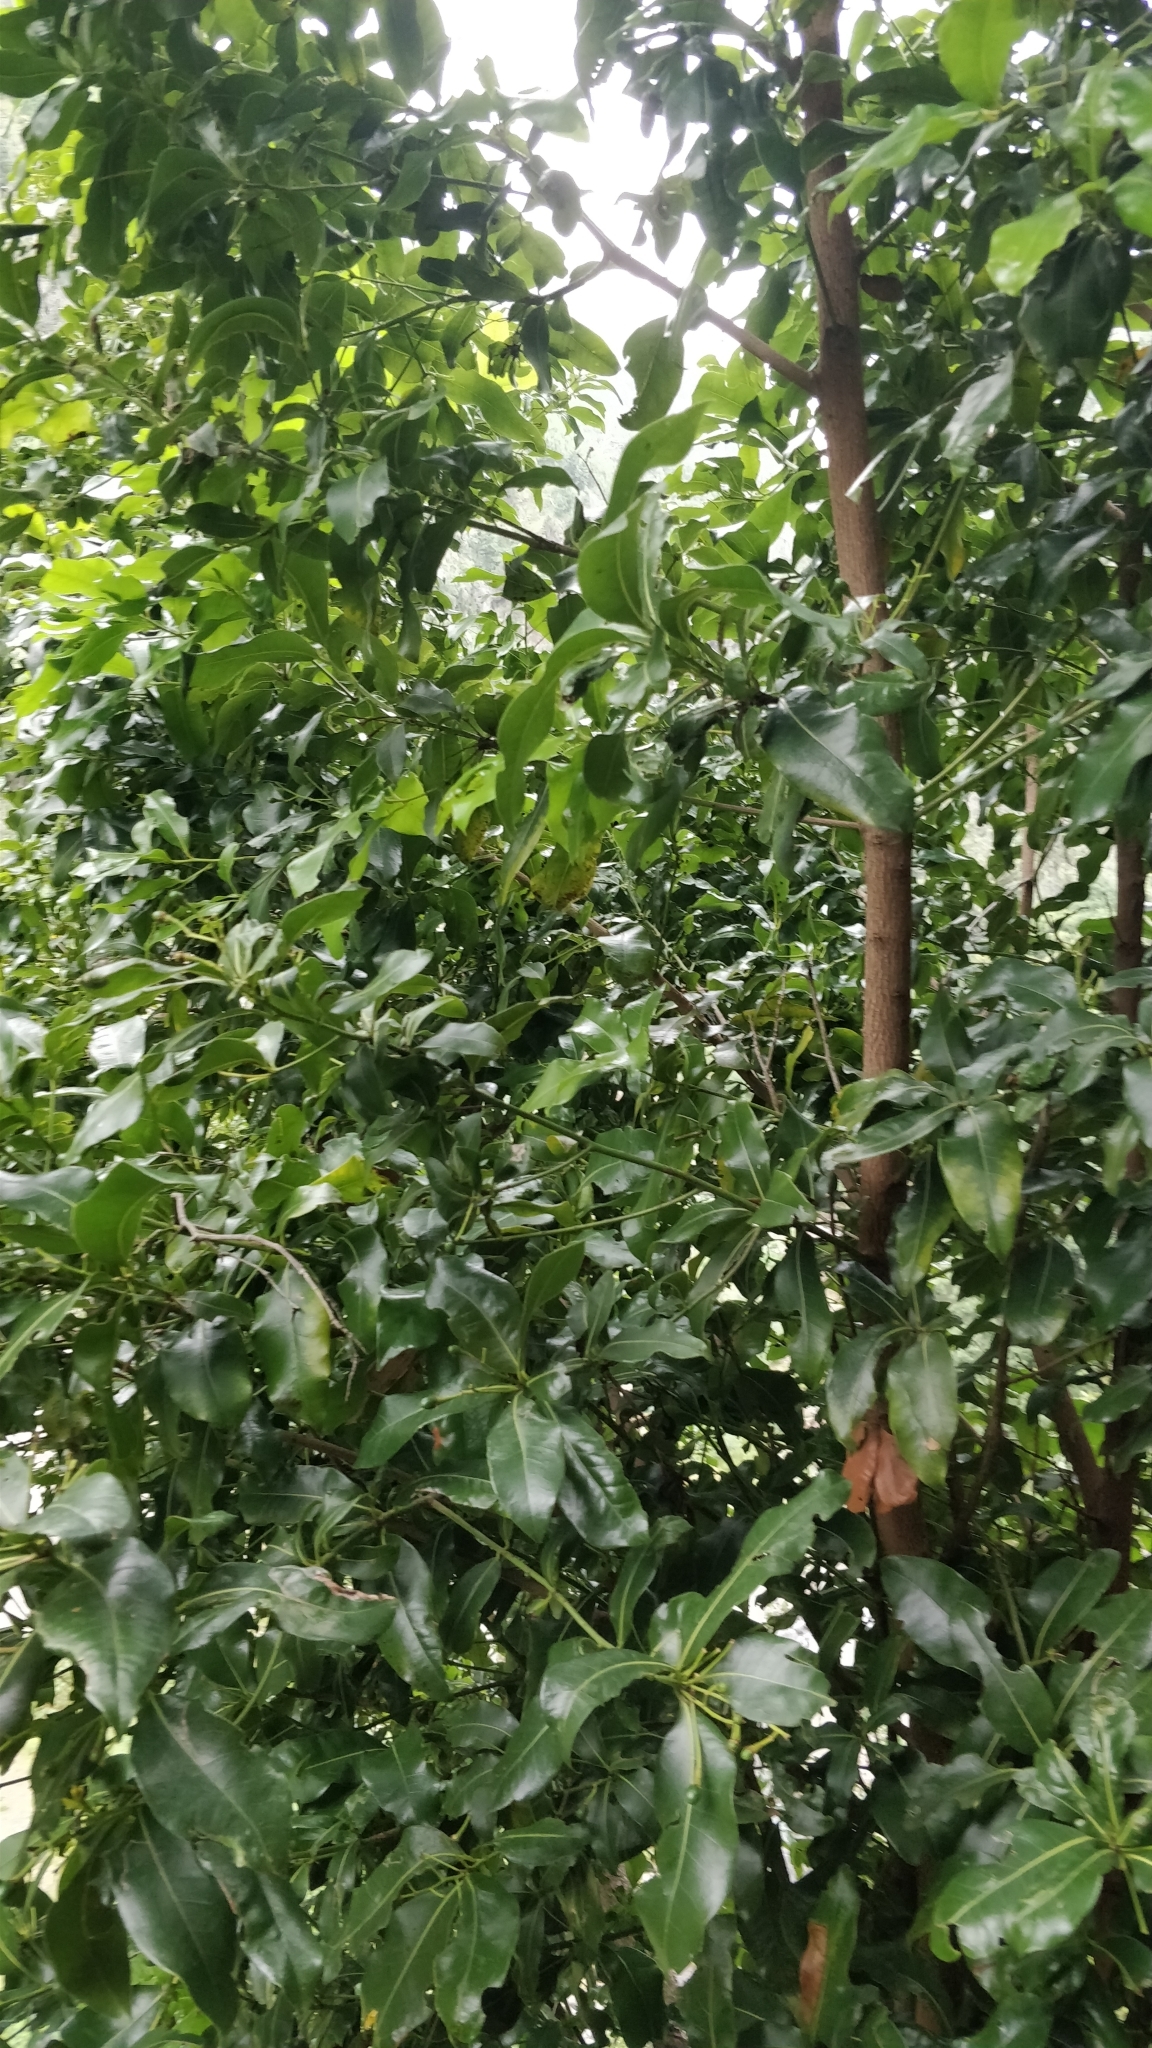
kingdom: Plantae
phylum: Tracheophyta
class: Magnoliopsida
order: Laurales
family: Lauraceae
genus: Apollonias
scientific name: Apollonias barbujana
